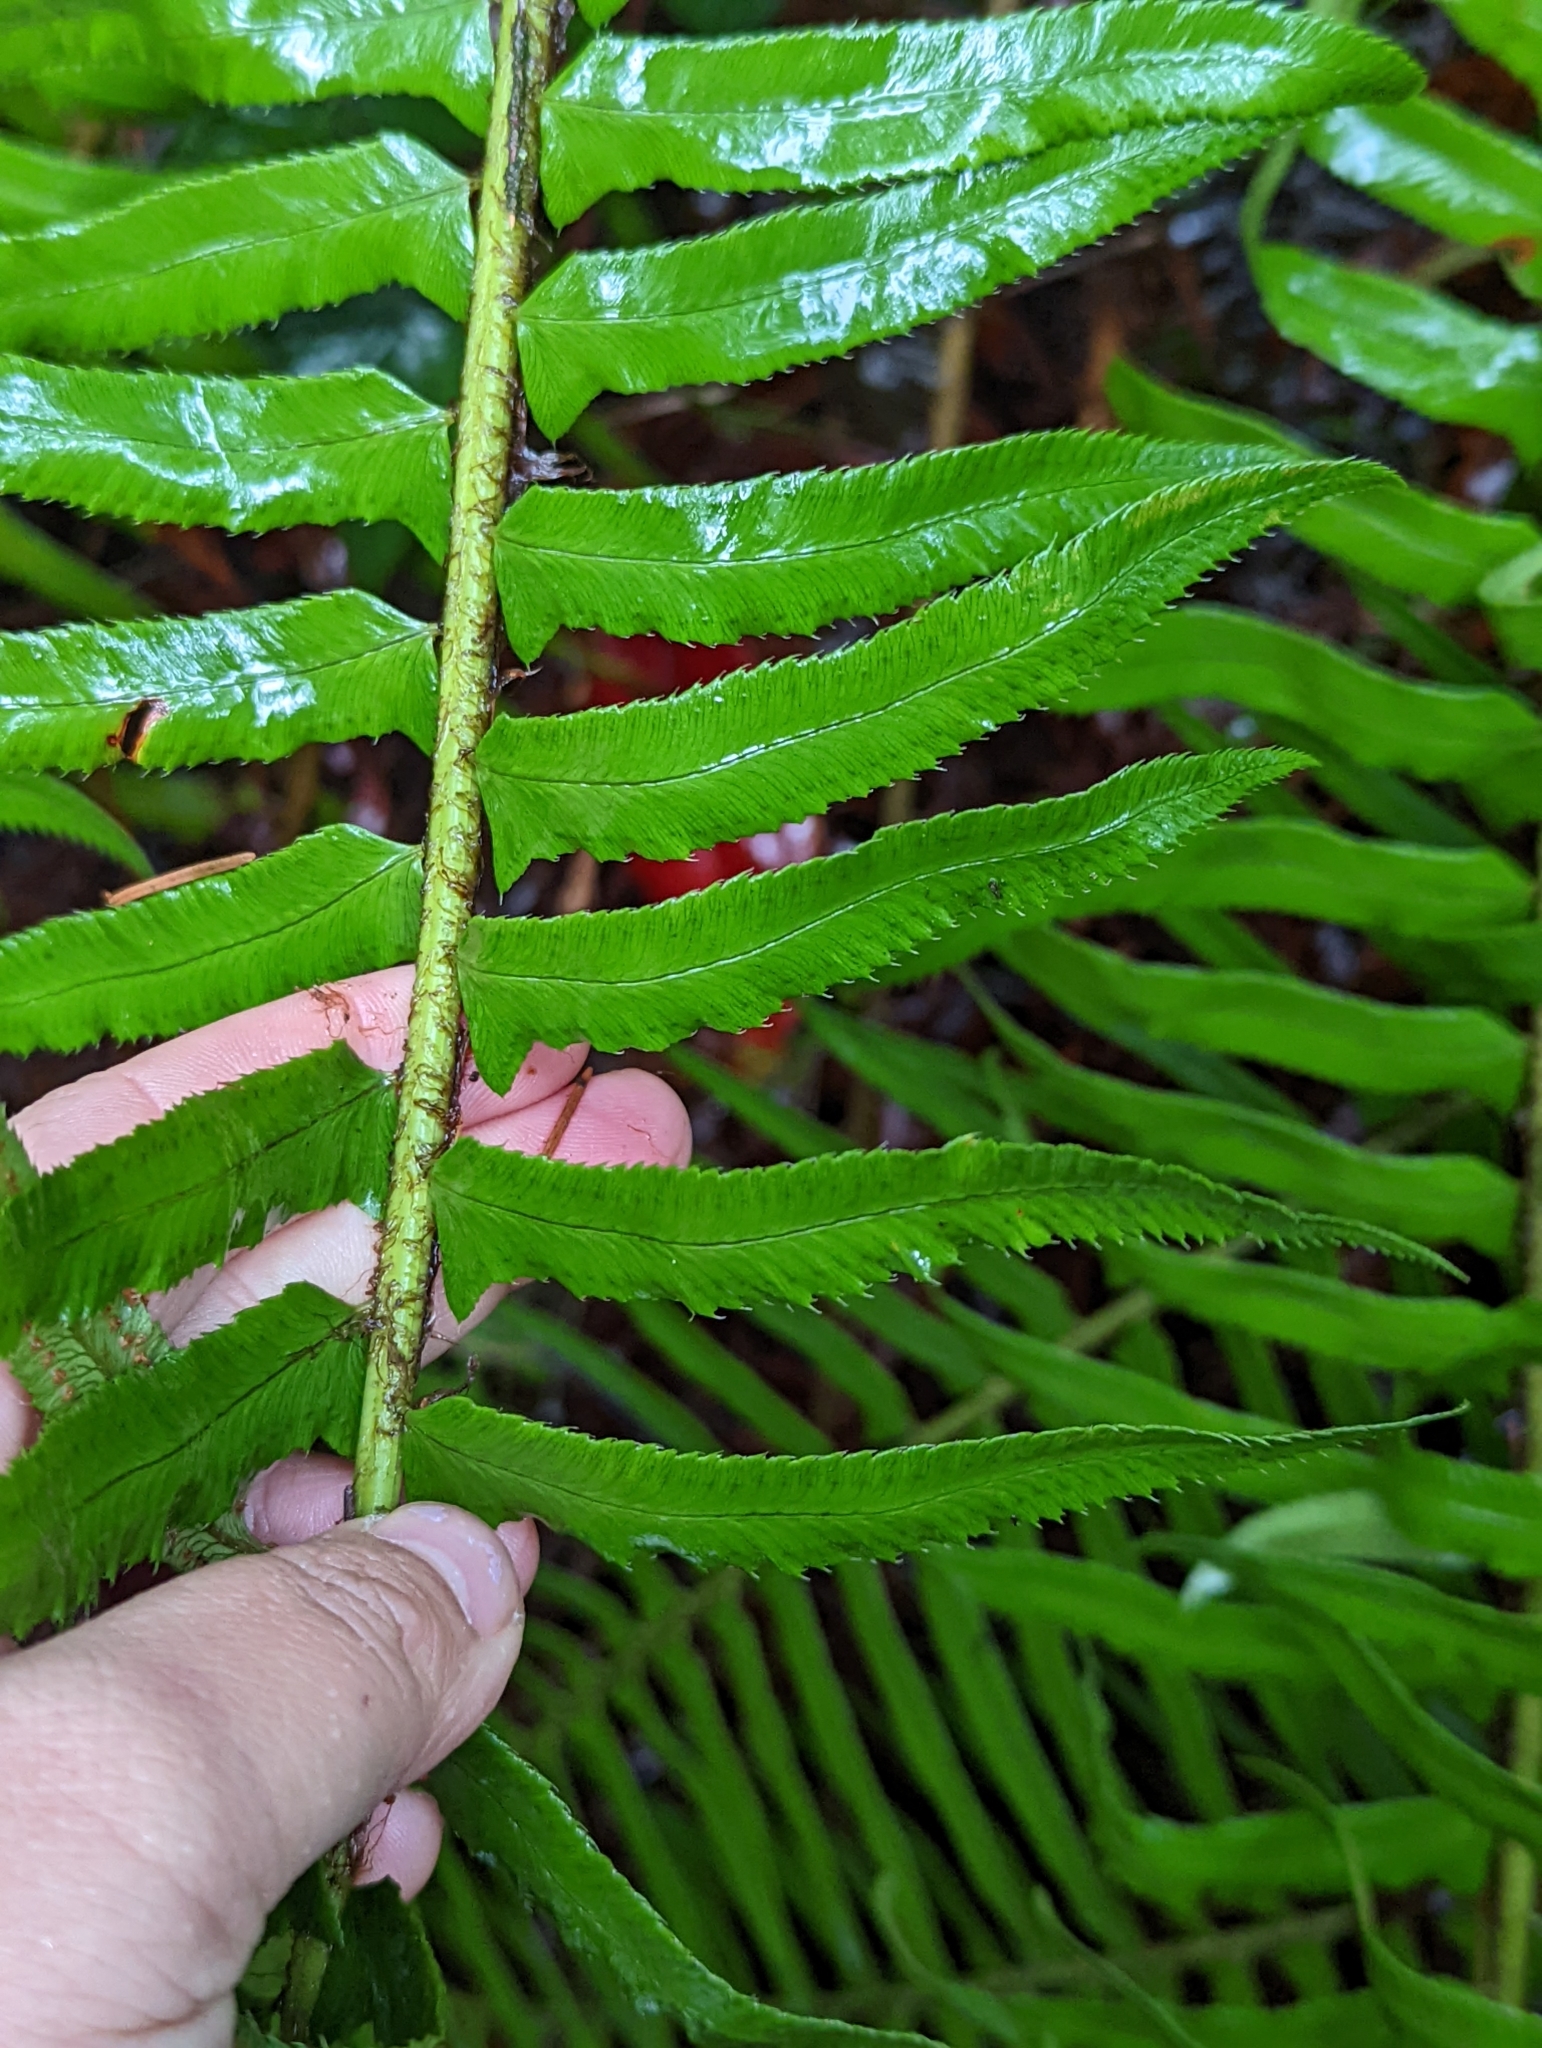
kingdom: Plantae
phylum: Tracheophyta
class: Polypodiopsida
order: Polypodiales
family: Dryopteridaceae
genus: Polystichum
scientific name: Polystichum munitum
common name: Western sword-fern
